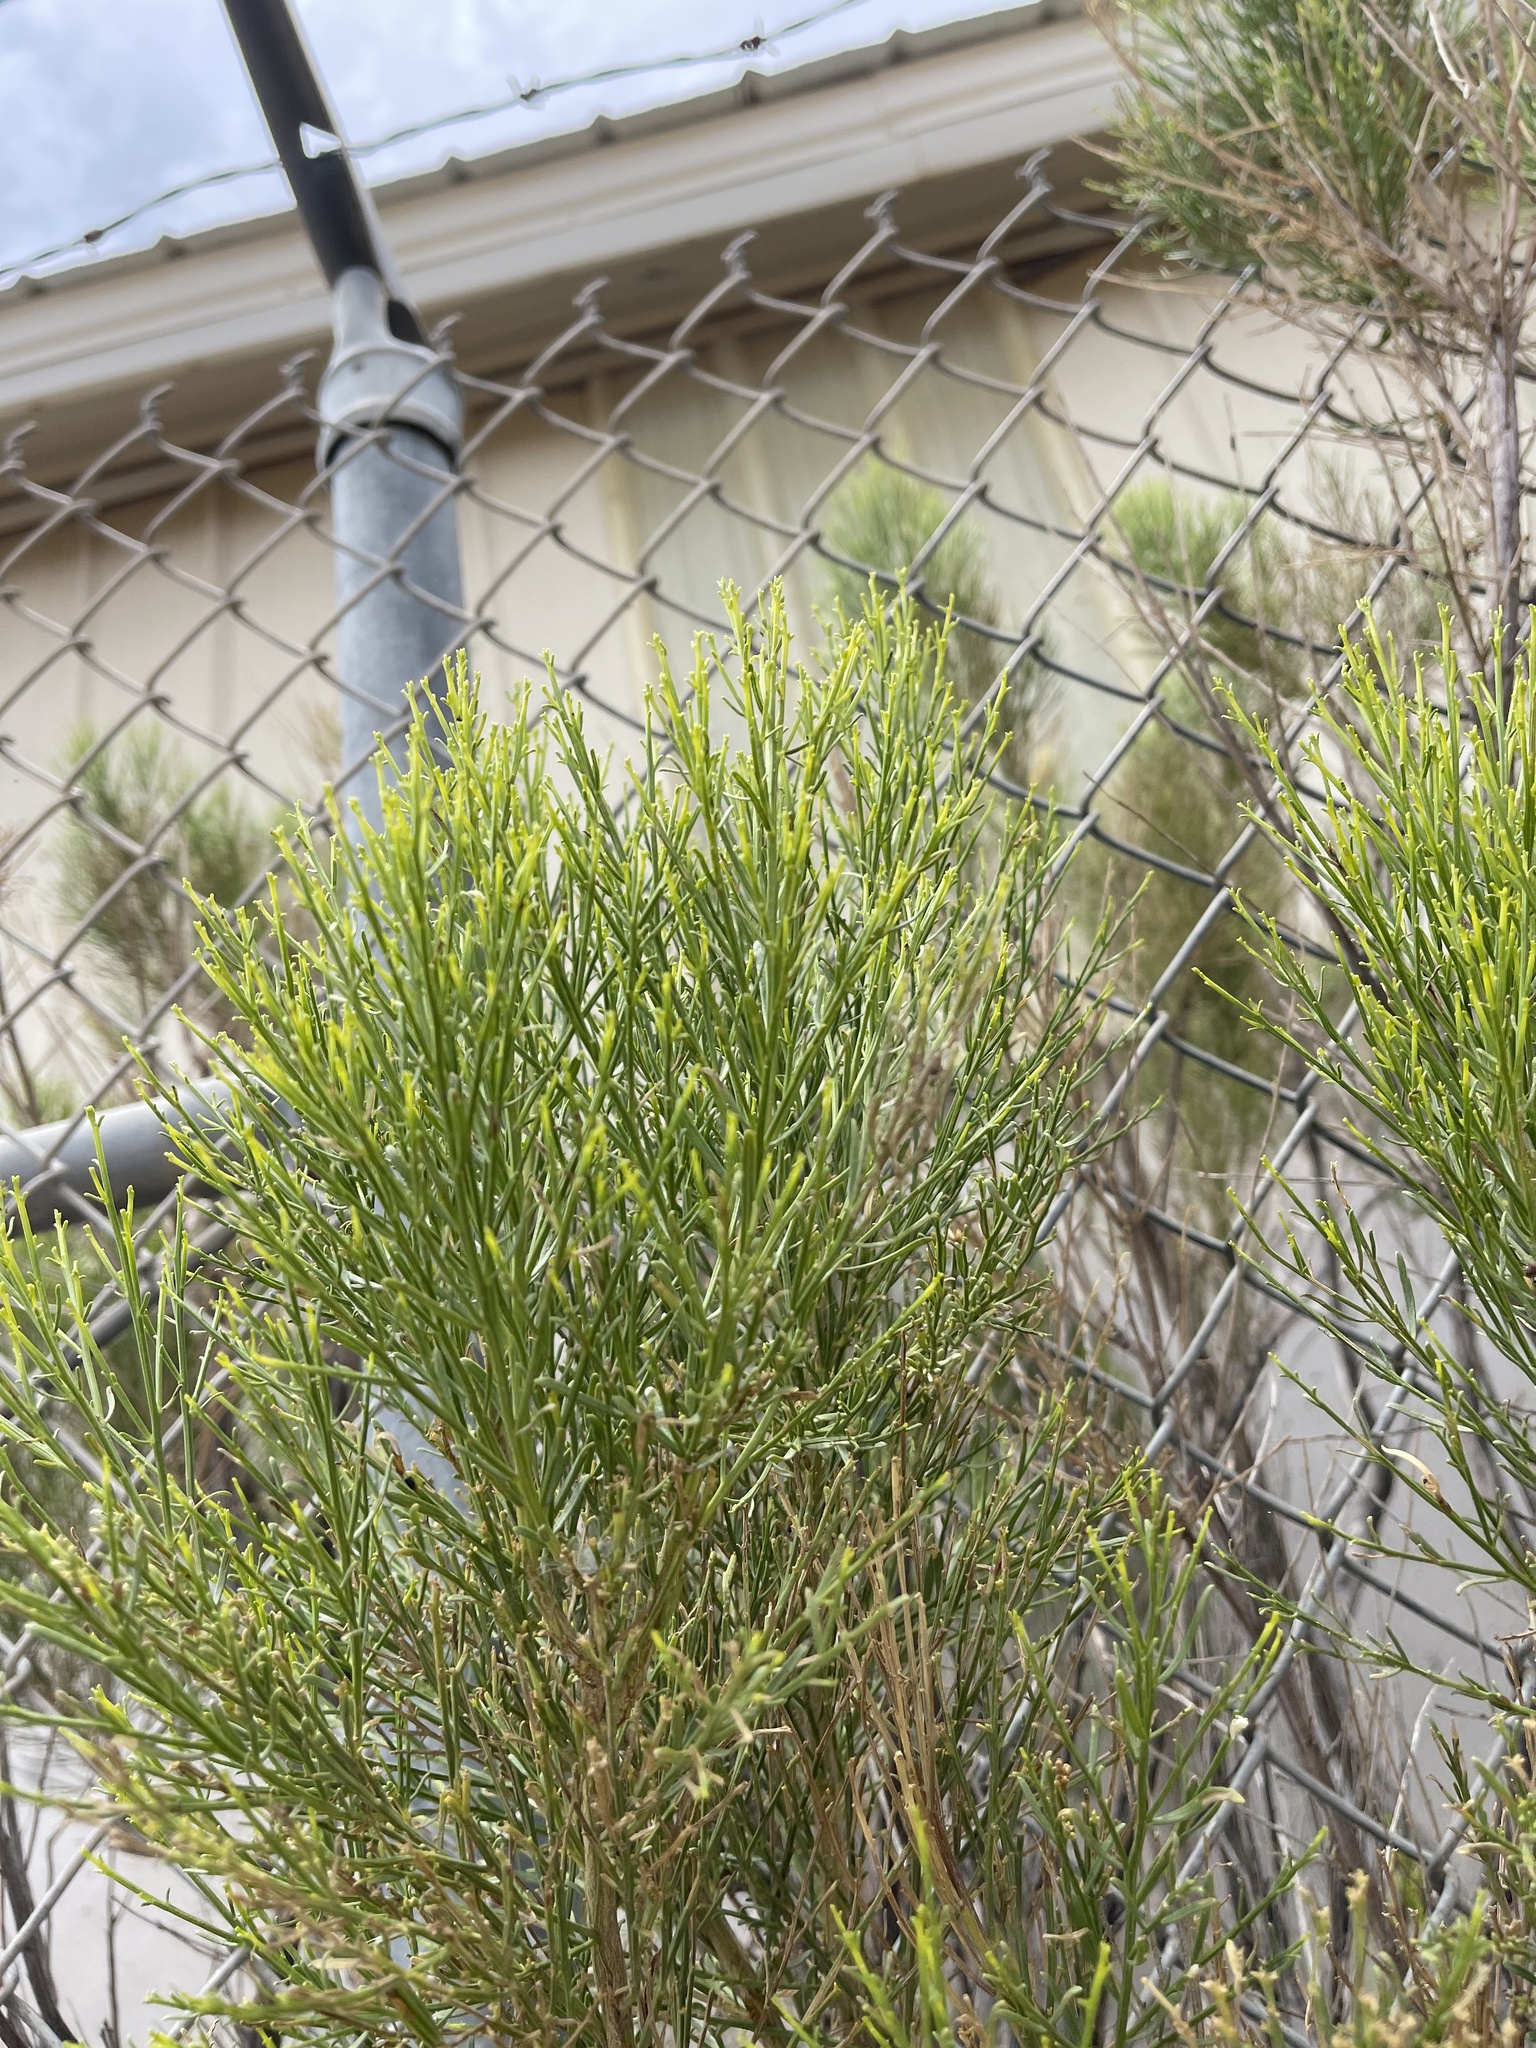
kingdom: Plantae
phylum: Tracheophyta
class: Magnoliopsida
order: Asterales
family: Asteraceae
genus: Baccharis
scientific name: Baccharis sarothroides
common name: Desert-broom
